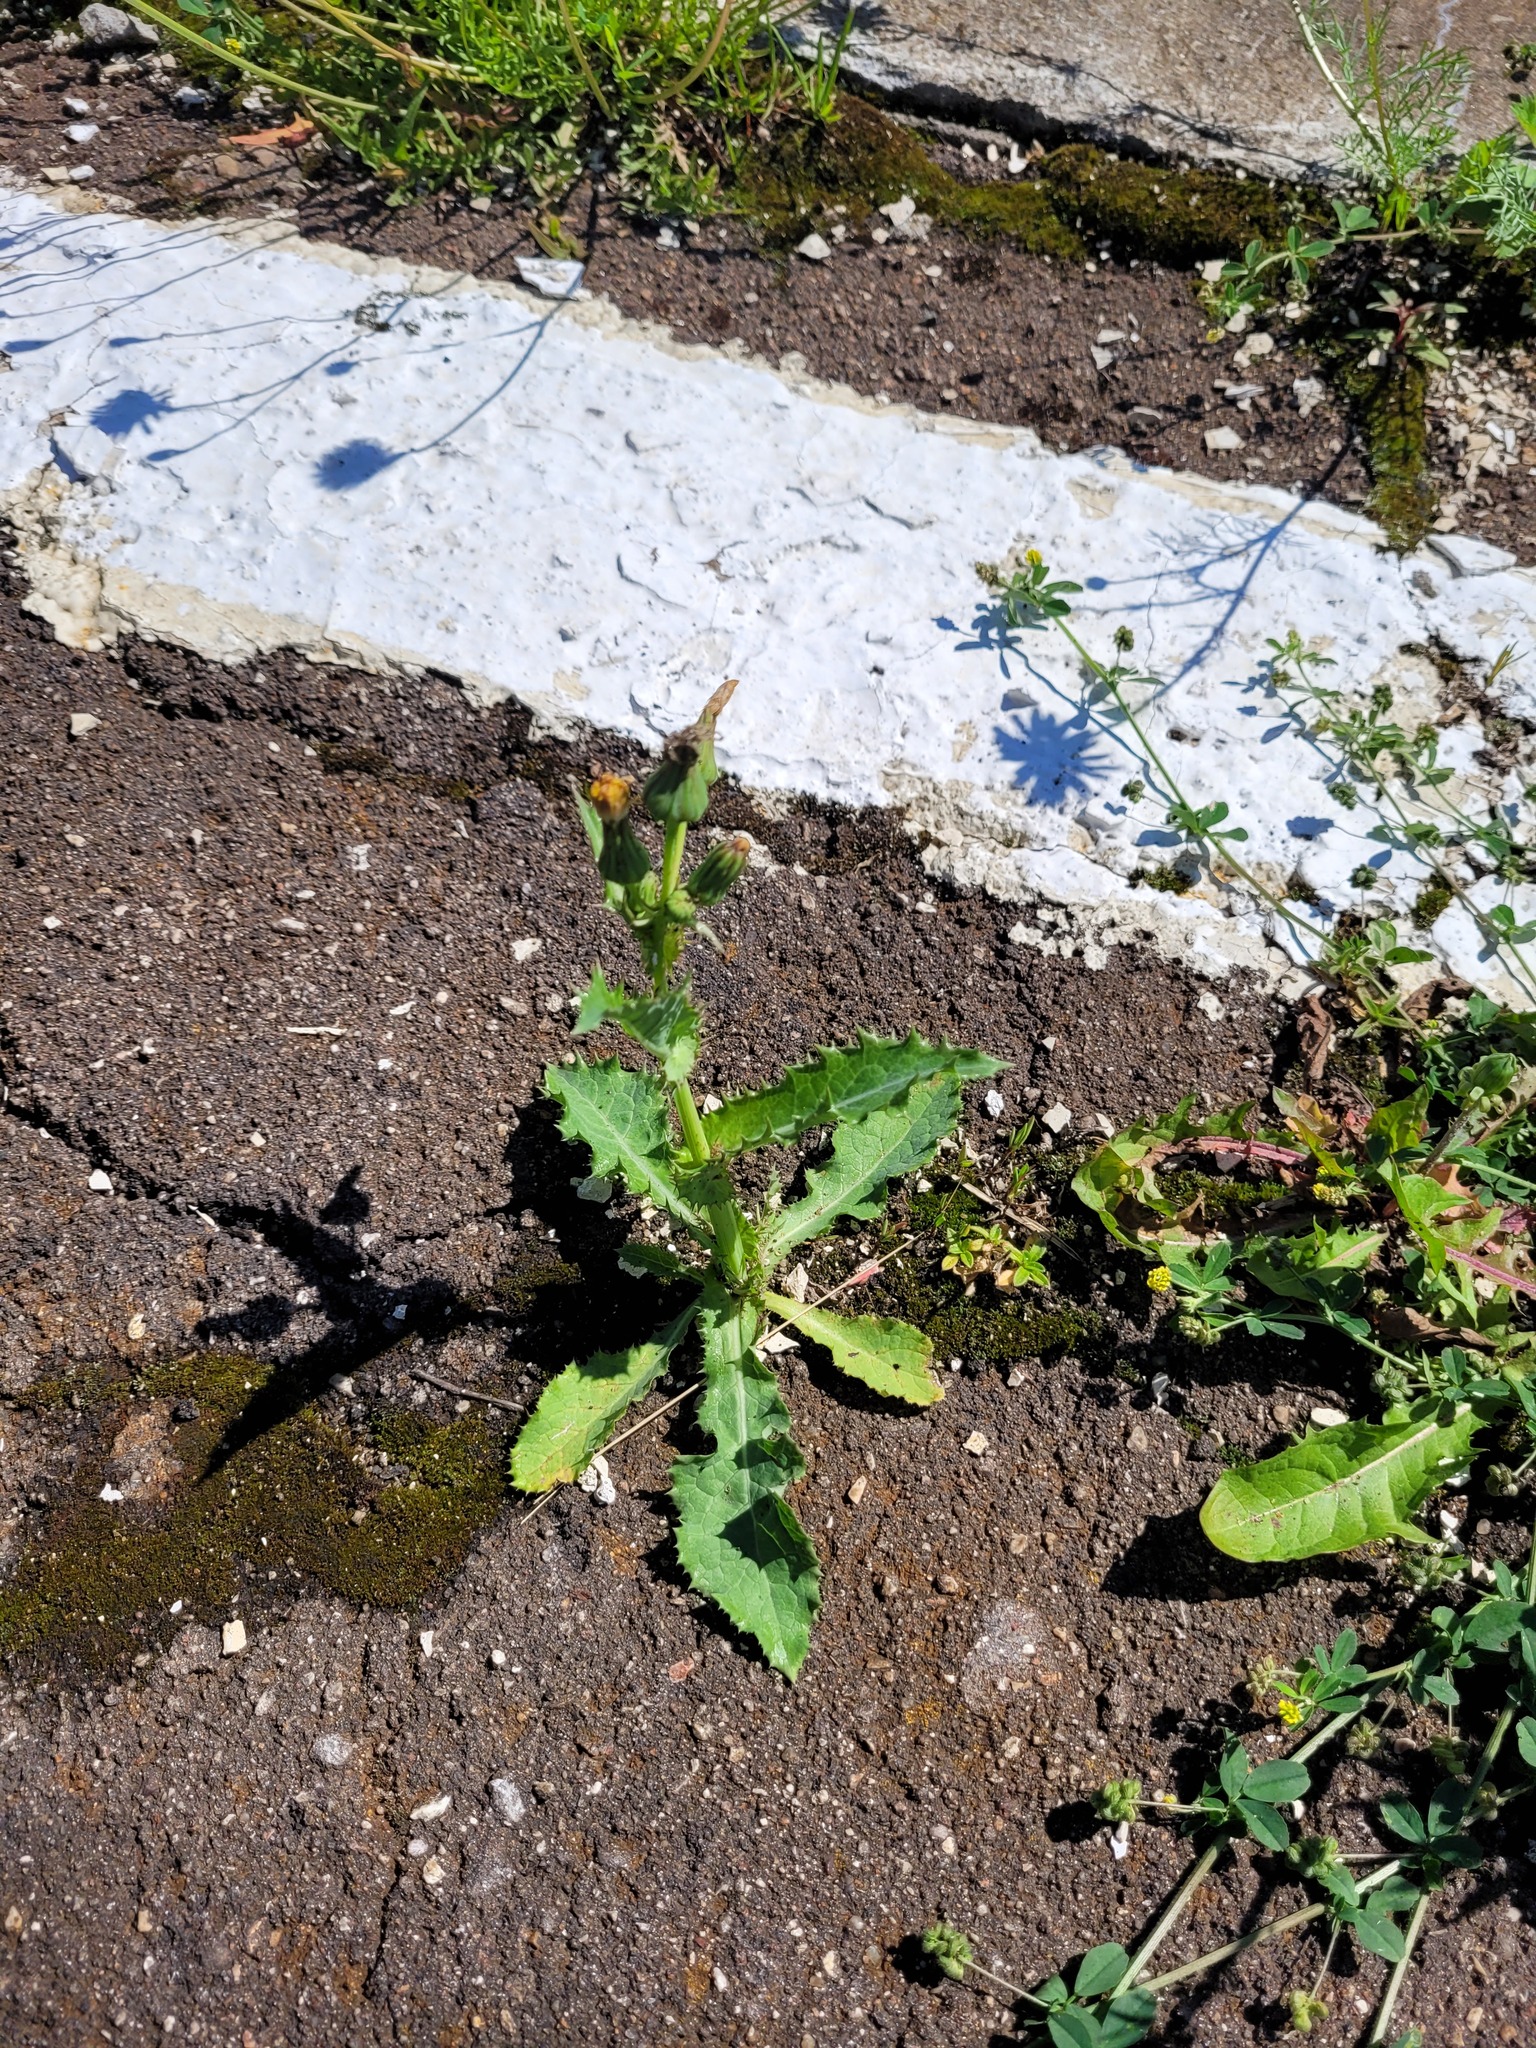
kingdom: Plantae
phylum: Tracheophyta
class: Magnoliopsida
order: Asterales
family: Asteraceae
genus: Sonchus
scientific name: Sonchus asper
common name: Prickly sow-thistle
